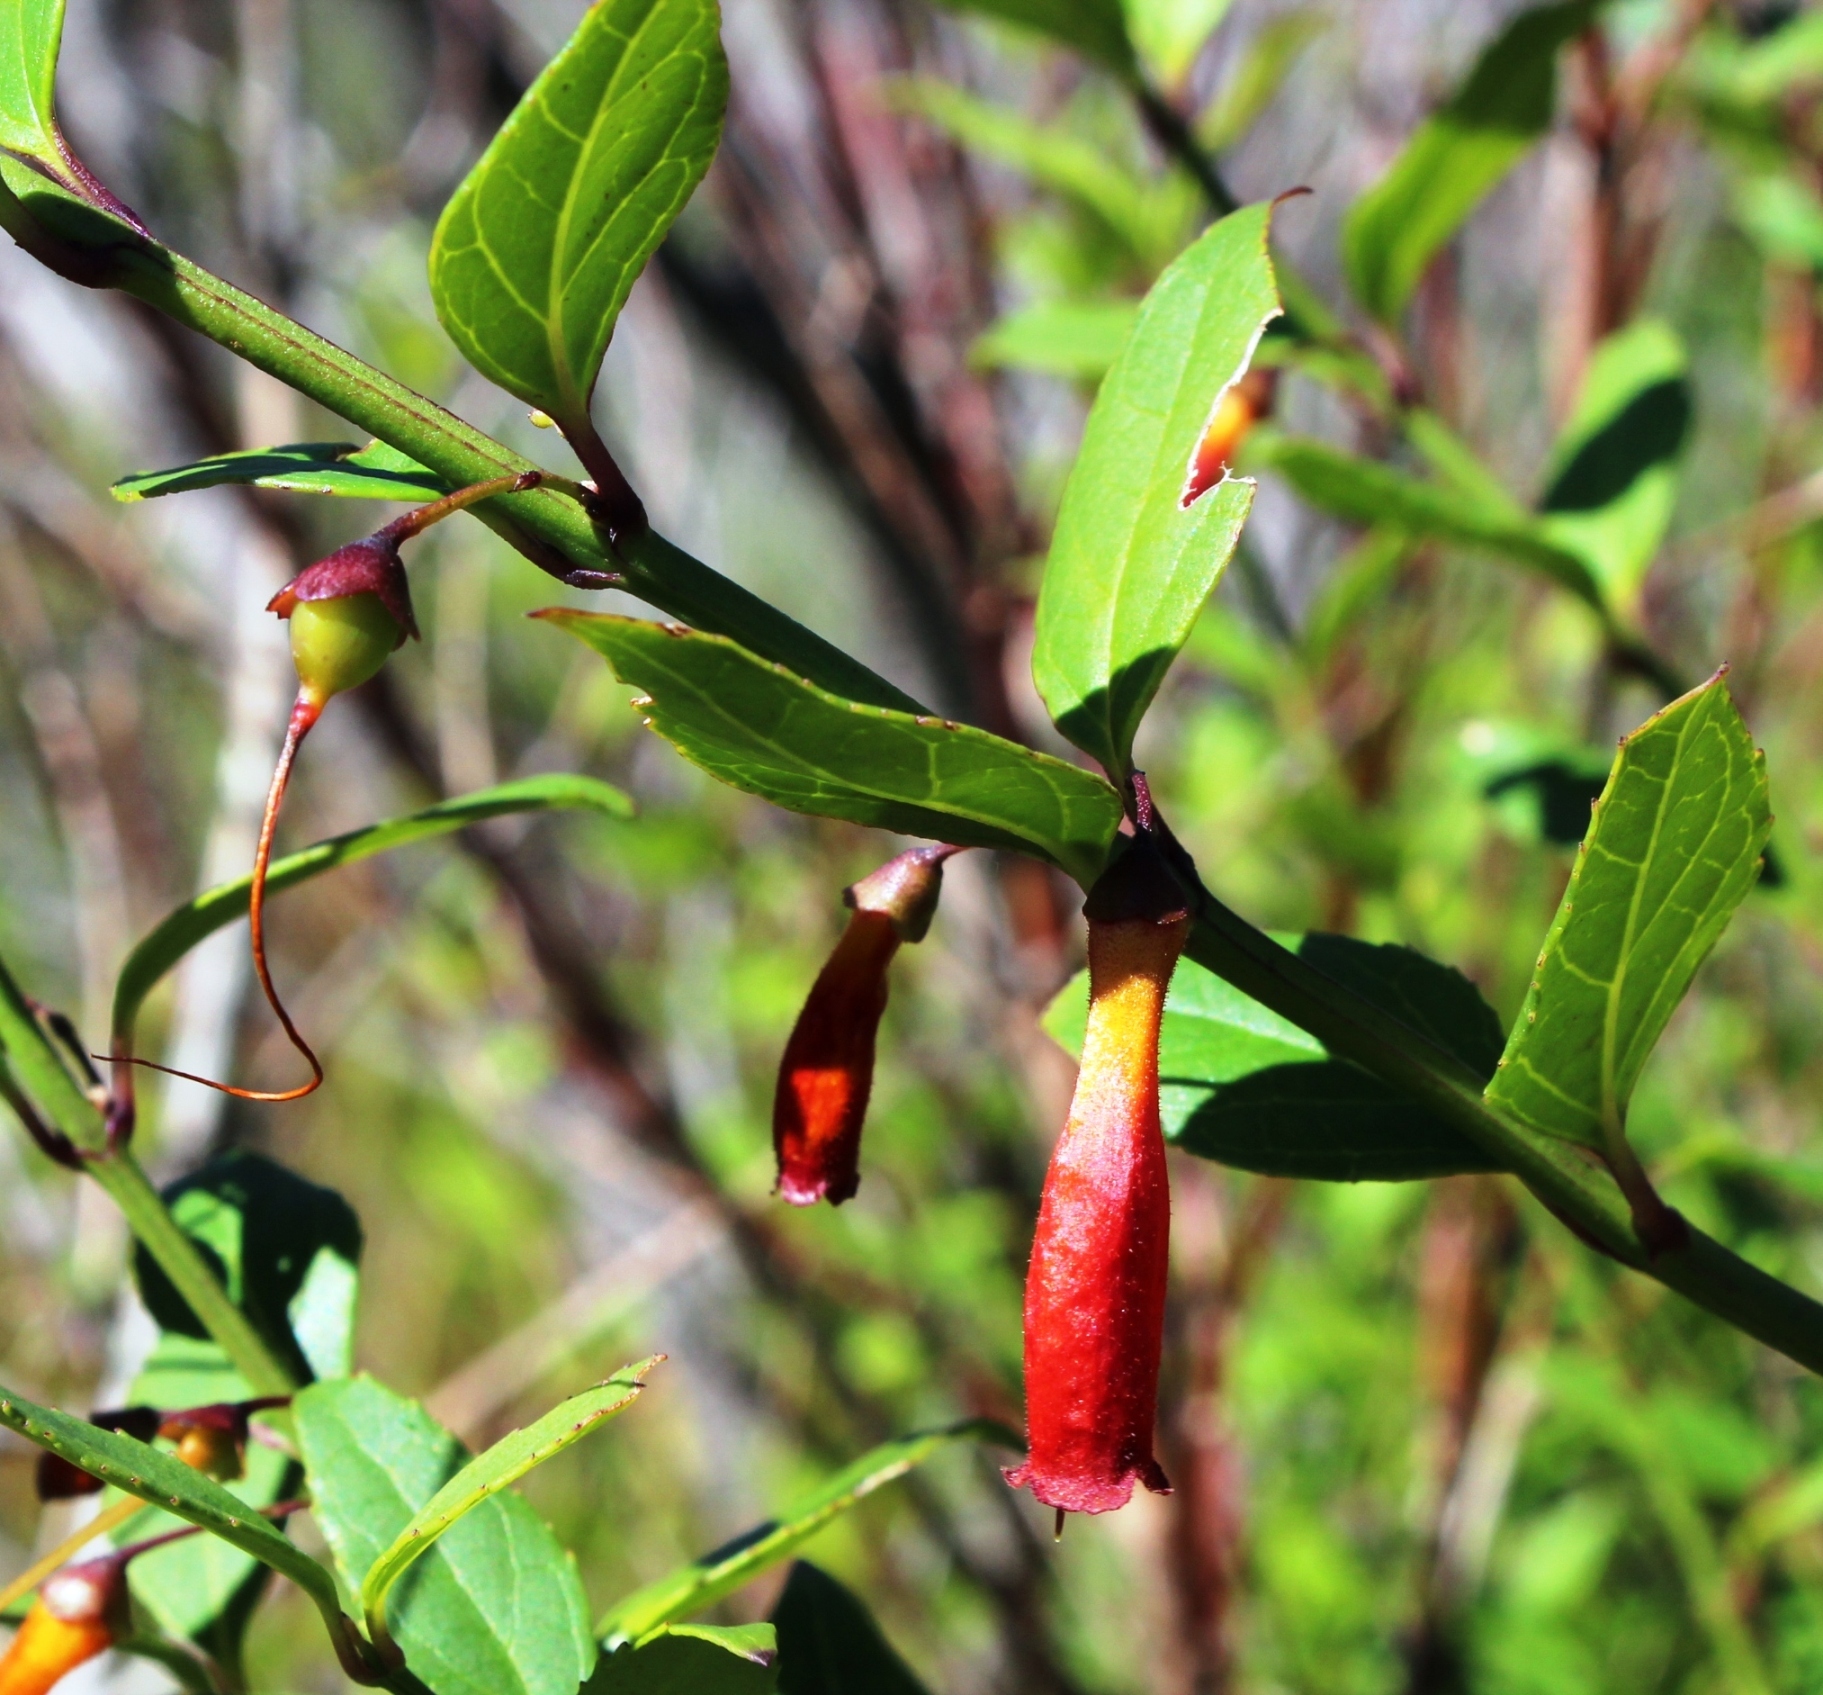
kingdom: Plantae
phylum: Tracheophyta
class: Magnoliopsida
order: Lamiales
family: Stilbaceae
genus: Halleria
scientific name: Halleria elliptica
